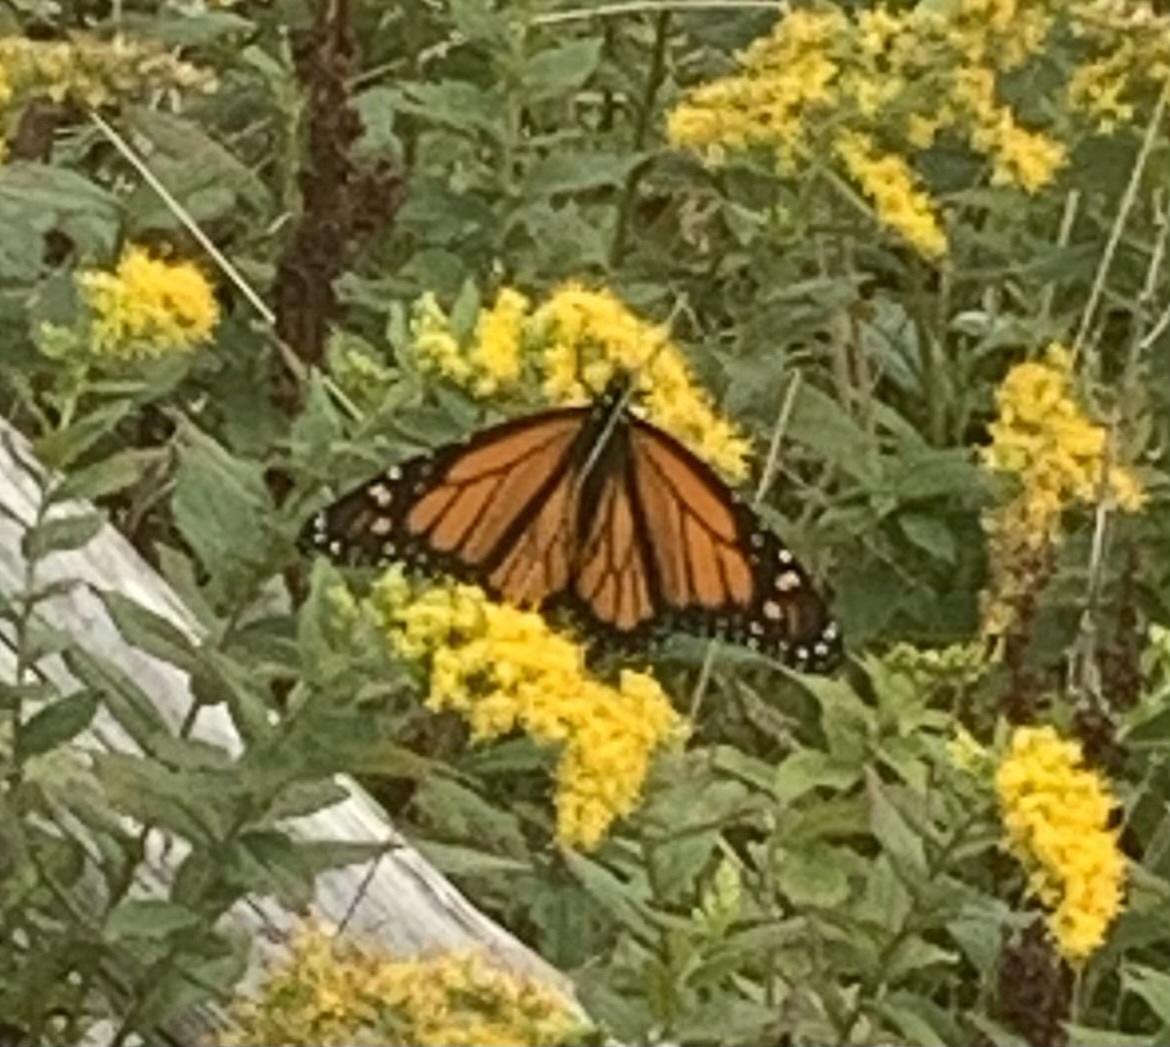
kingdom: Animalia
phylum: Arthropoda
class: Insecta
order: Lepidoptera
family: Nymphalidae
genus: Danaus
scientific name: Danaus plexippus
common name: Monarch
